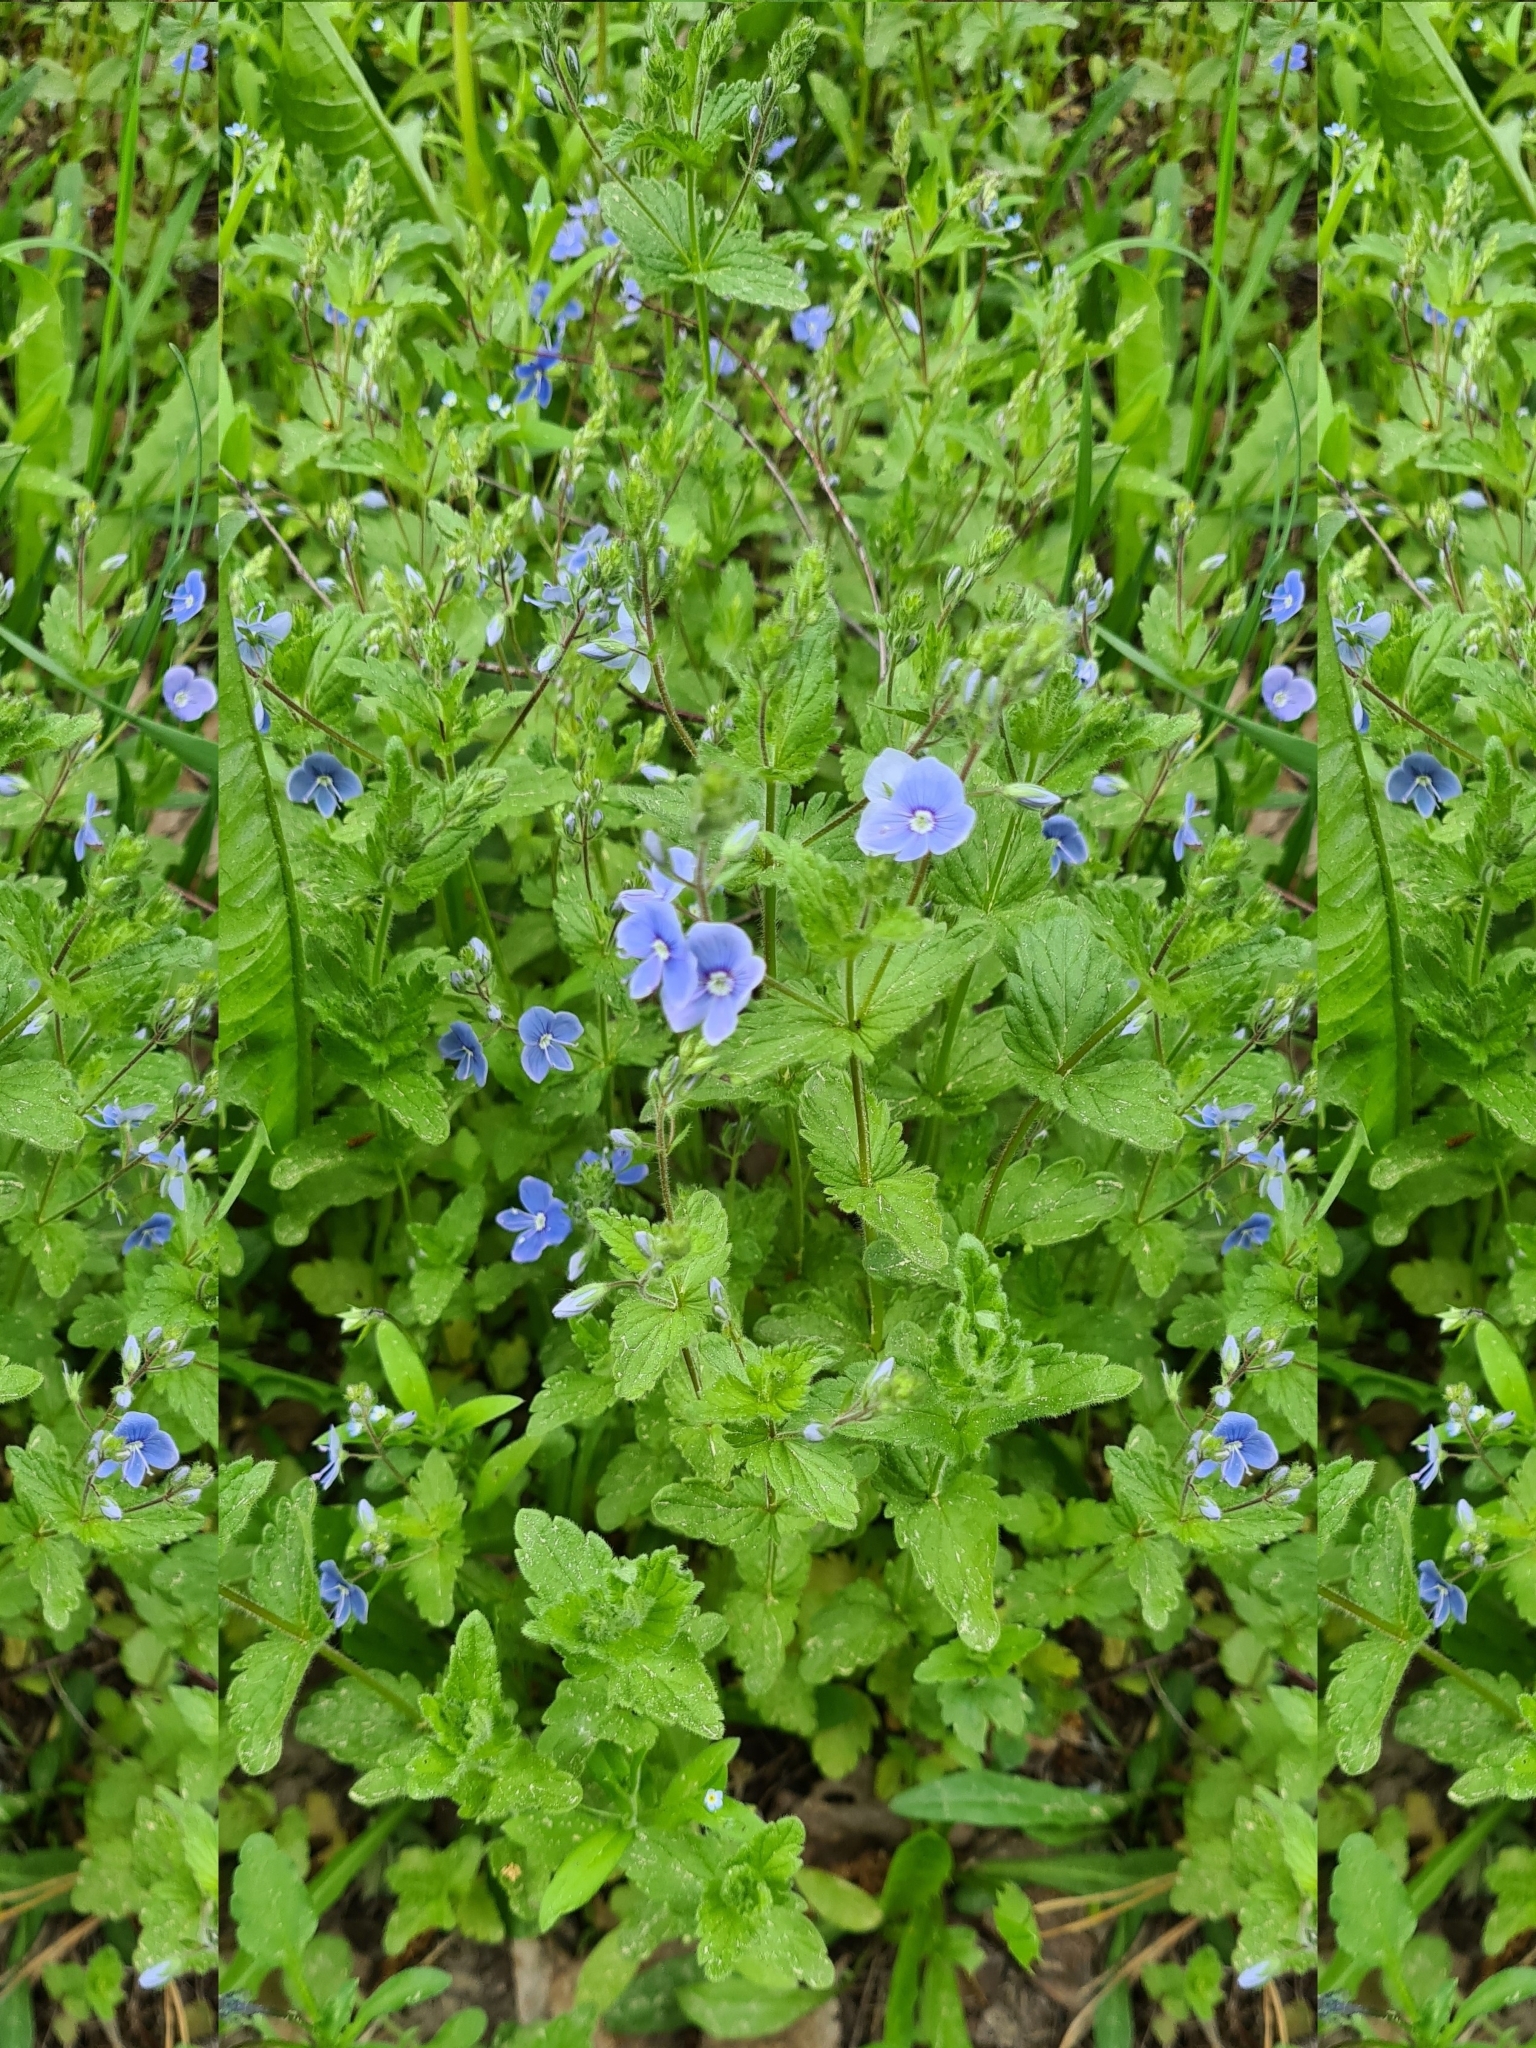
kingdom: Plantae
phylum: Tracheophyta
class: Magnoliopsida
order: Lamiales
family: Plantaginaceae
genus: Veronica
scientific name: Veronica chamaedrys
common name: Germander speedwell
